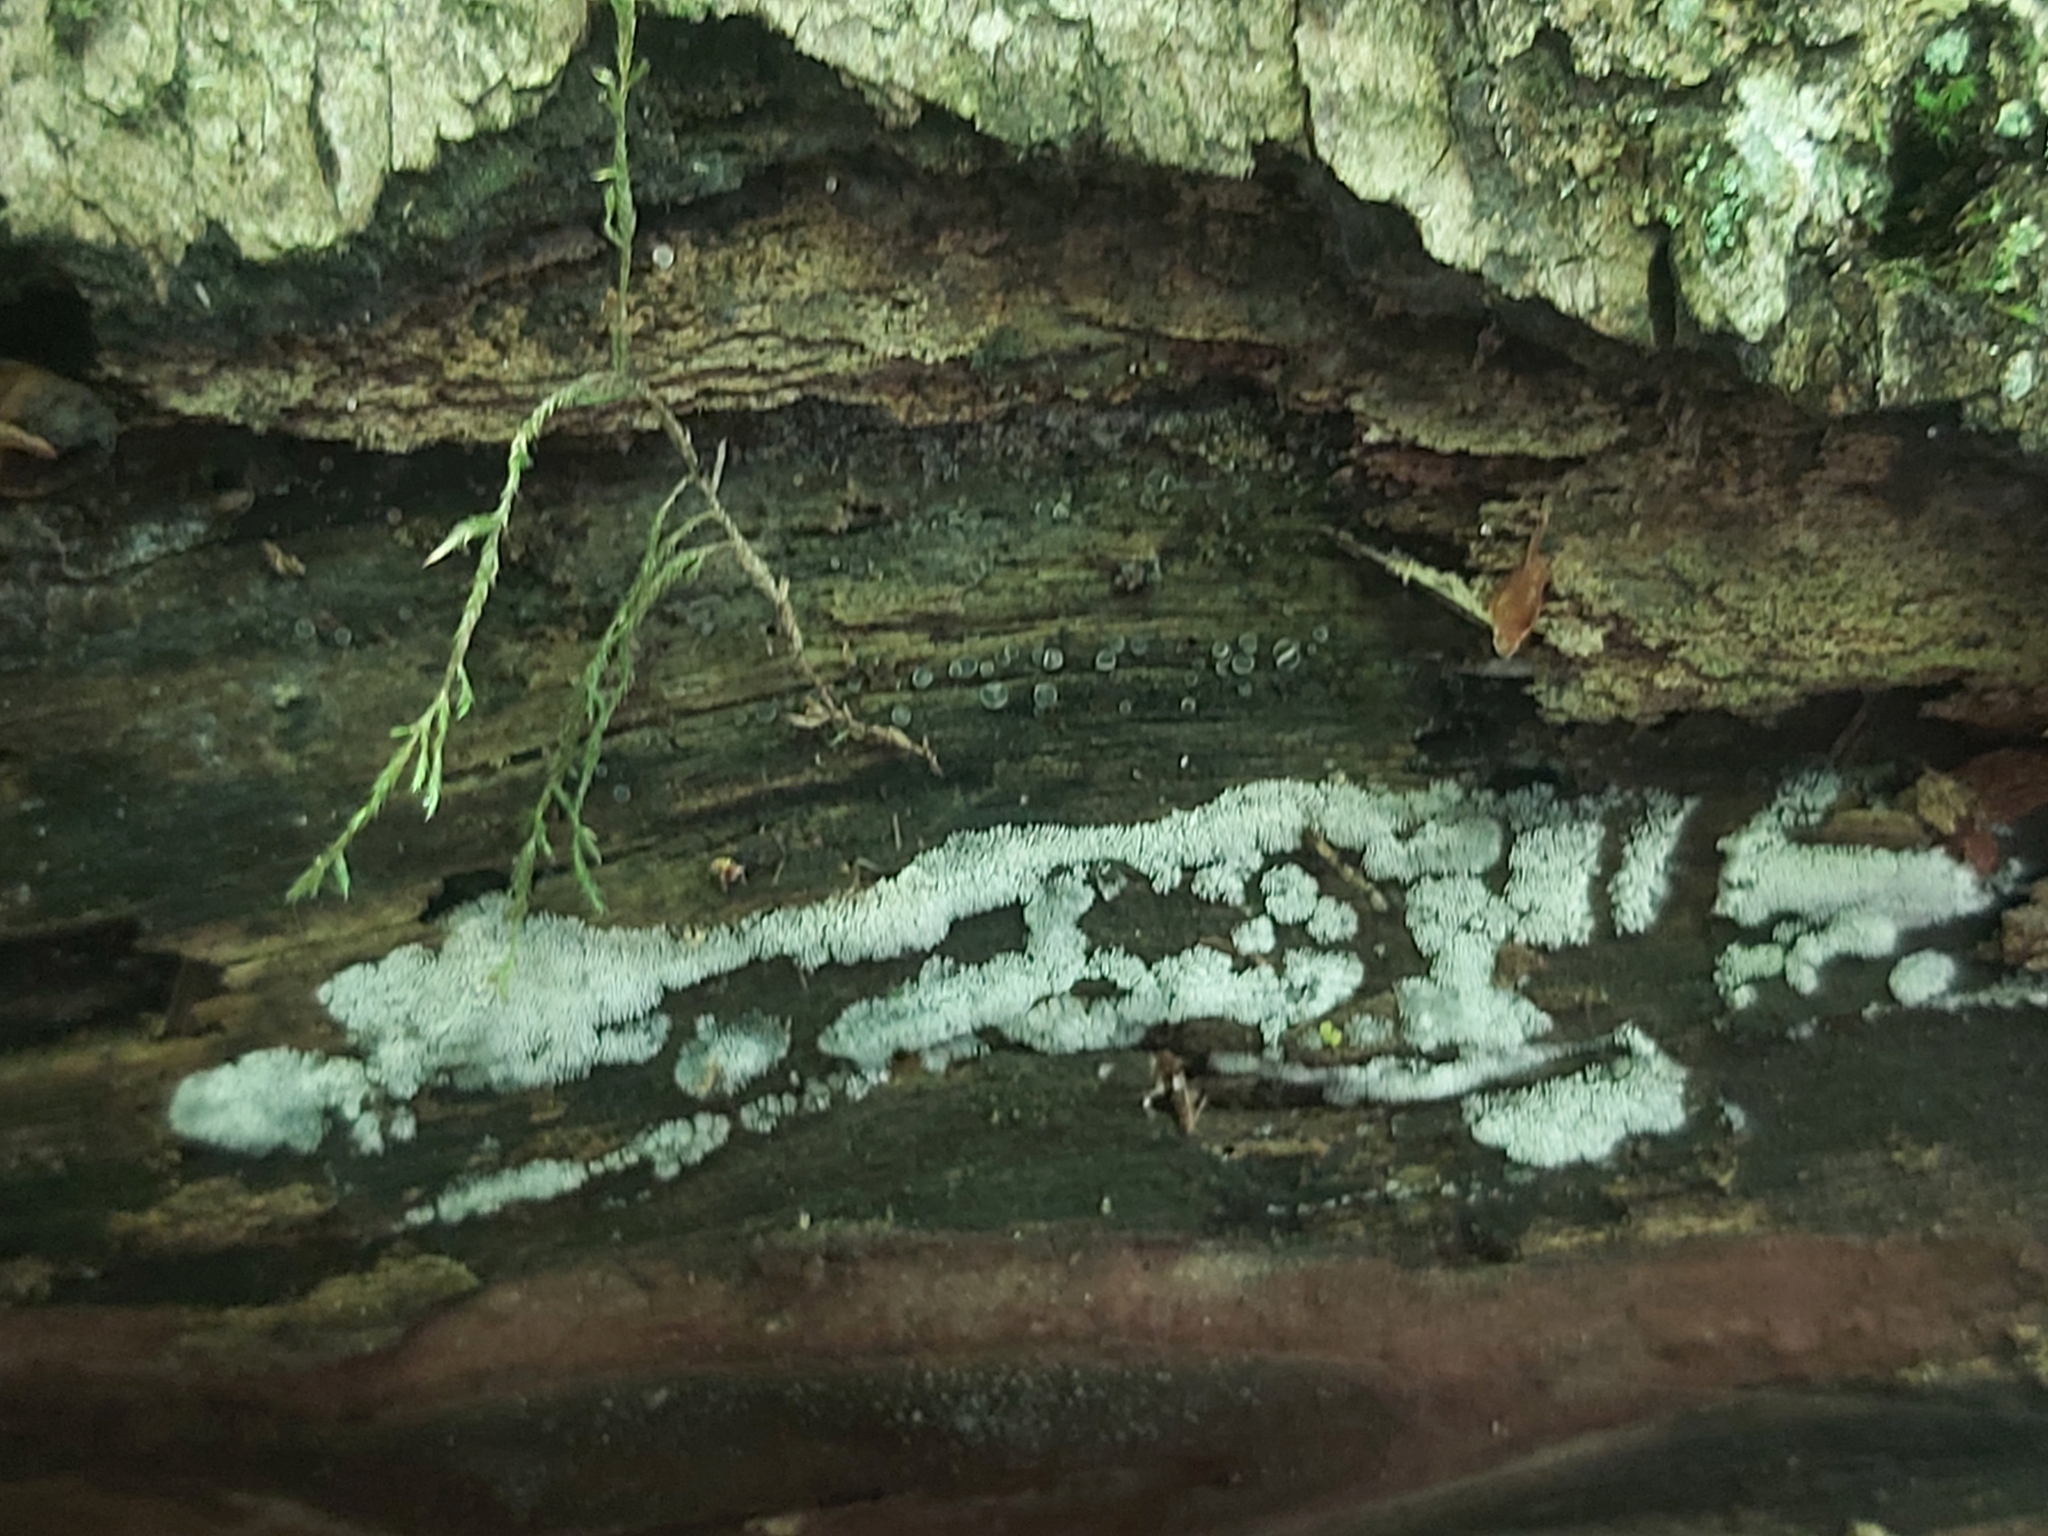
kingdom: Protozoa
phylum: Mycetozoa
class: Protosteliomycetes
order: Ceratiomyxales
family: Ceratiomyxaceae
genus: Ceratiomyxa
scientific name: Ceratiomyxa fruticulosa
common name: Honeycomb coral slime mold
